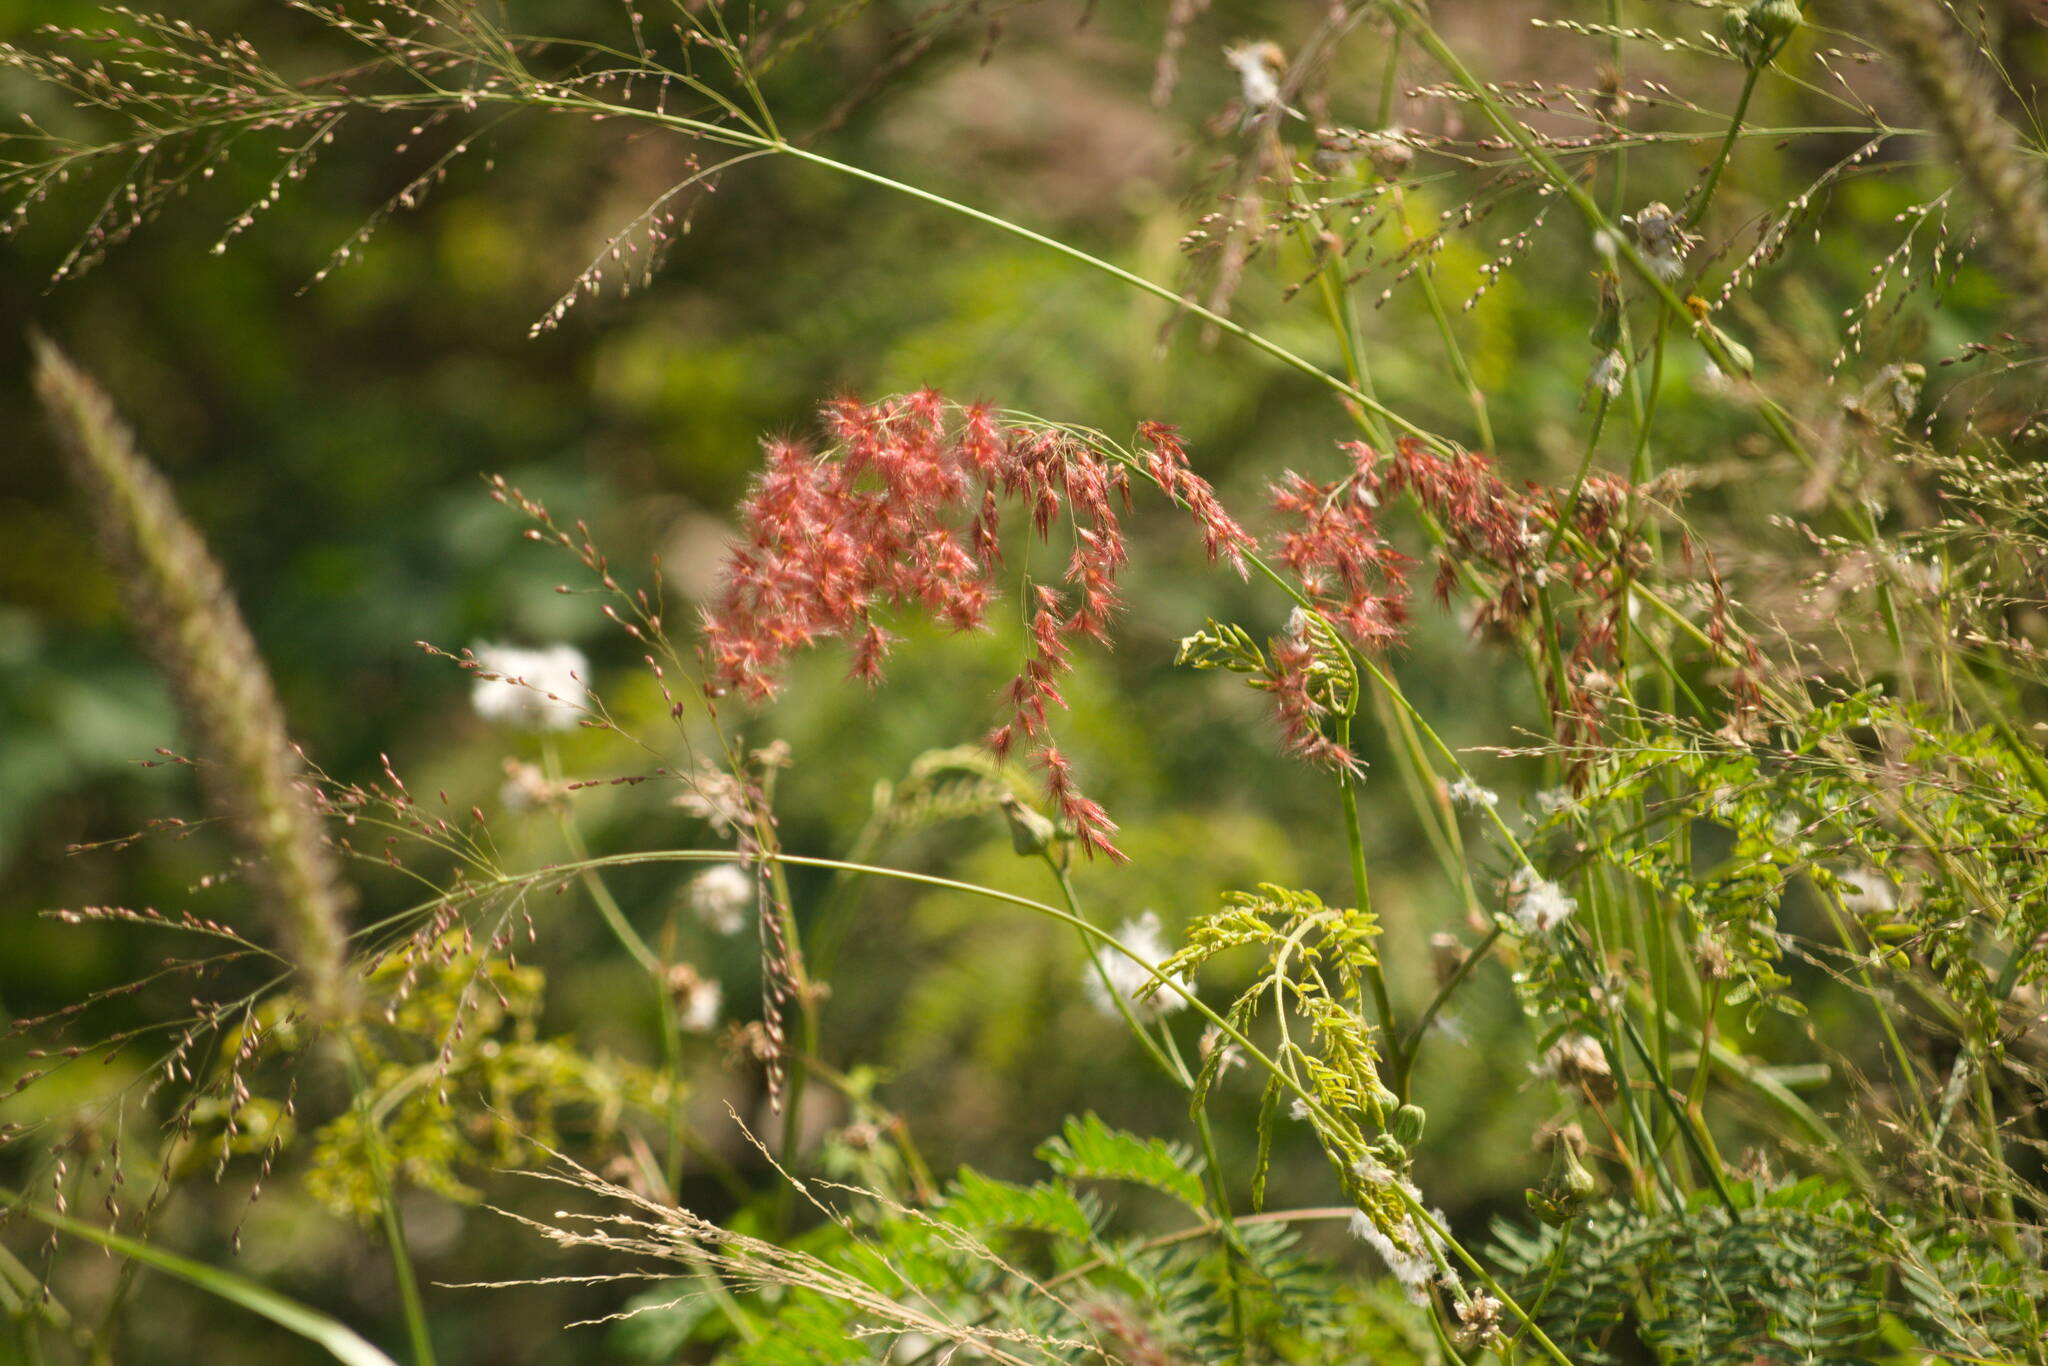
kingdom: Plantae
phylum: Tracheophyta
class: Liliopsida
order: Poales
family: Poaceae
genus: Melinis
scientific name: Melinis repens
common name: Rose natal grass
